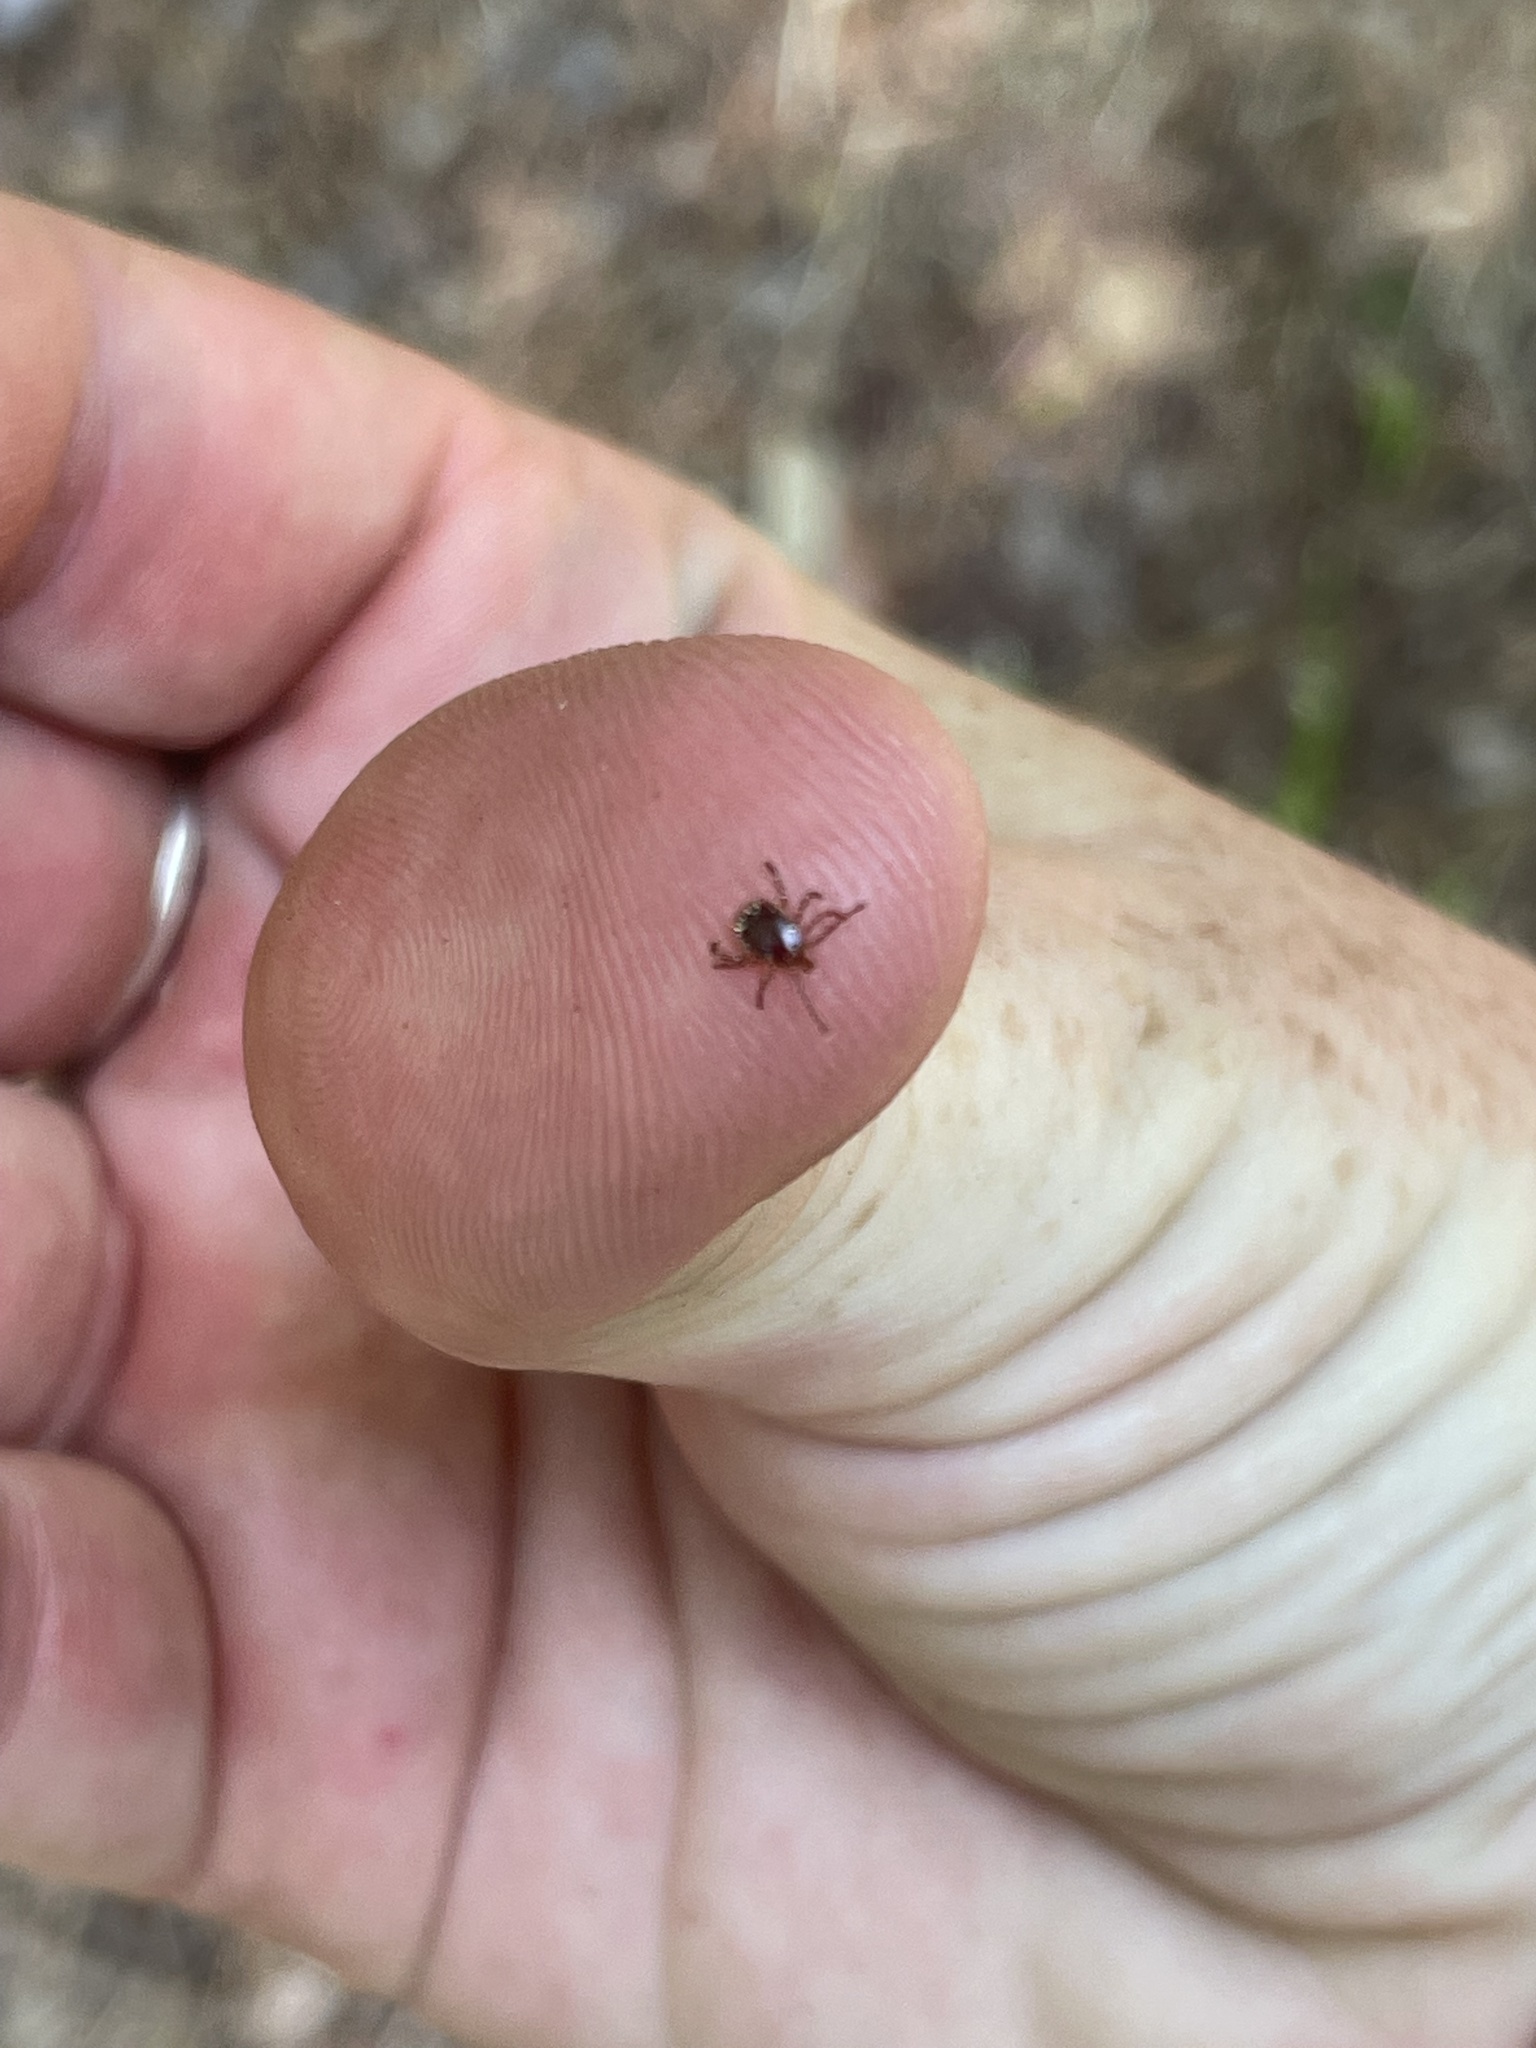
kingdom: Animalia
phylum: Arthropoda
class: Arachnida
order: Ixodida
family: Ixodidae
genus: Amblyomma
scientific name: Amblyomma americanum
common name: Lone star tick
